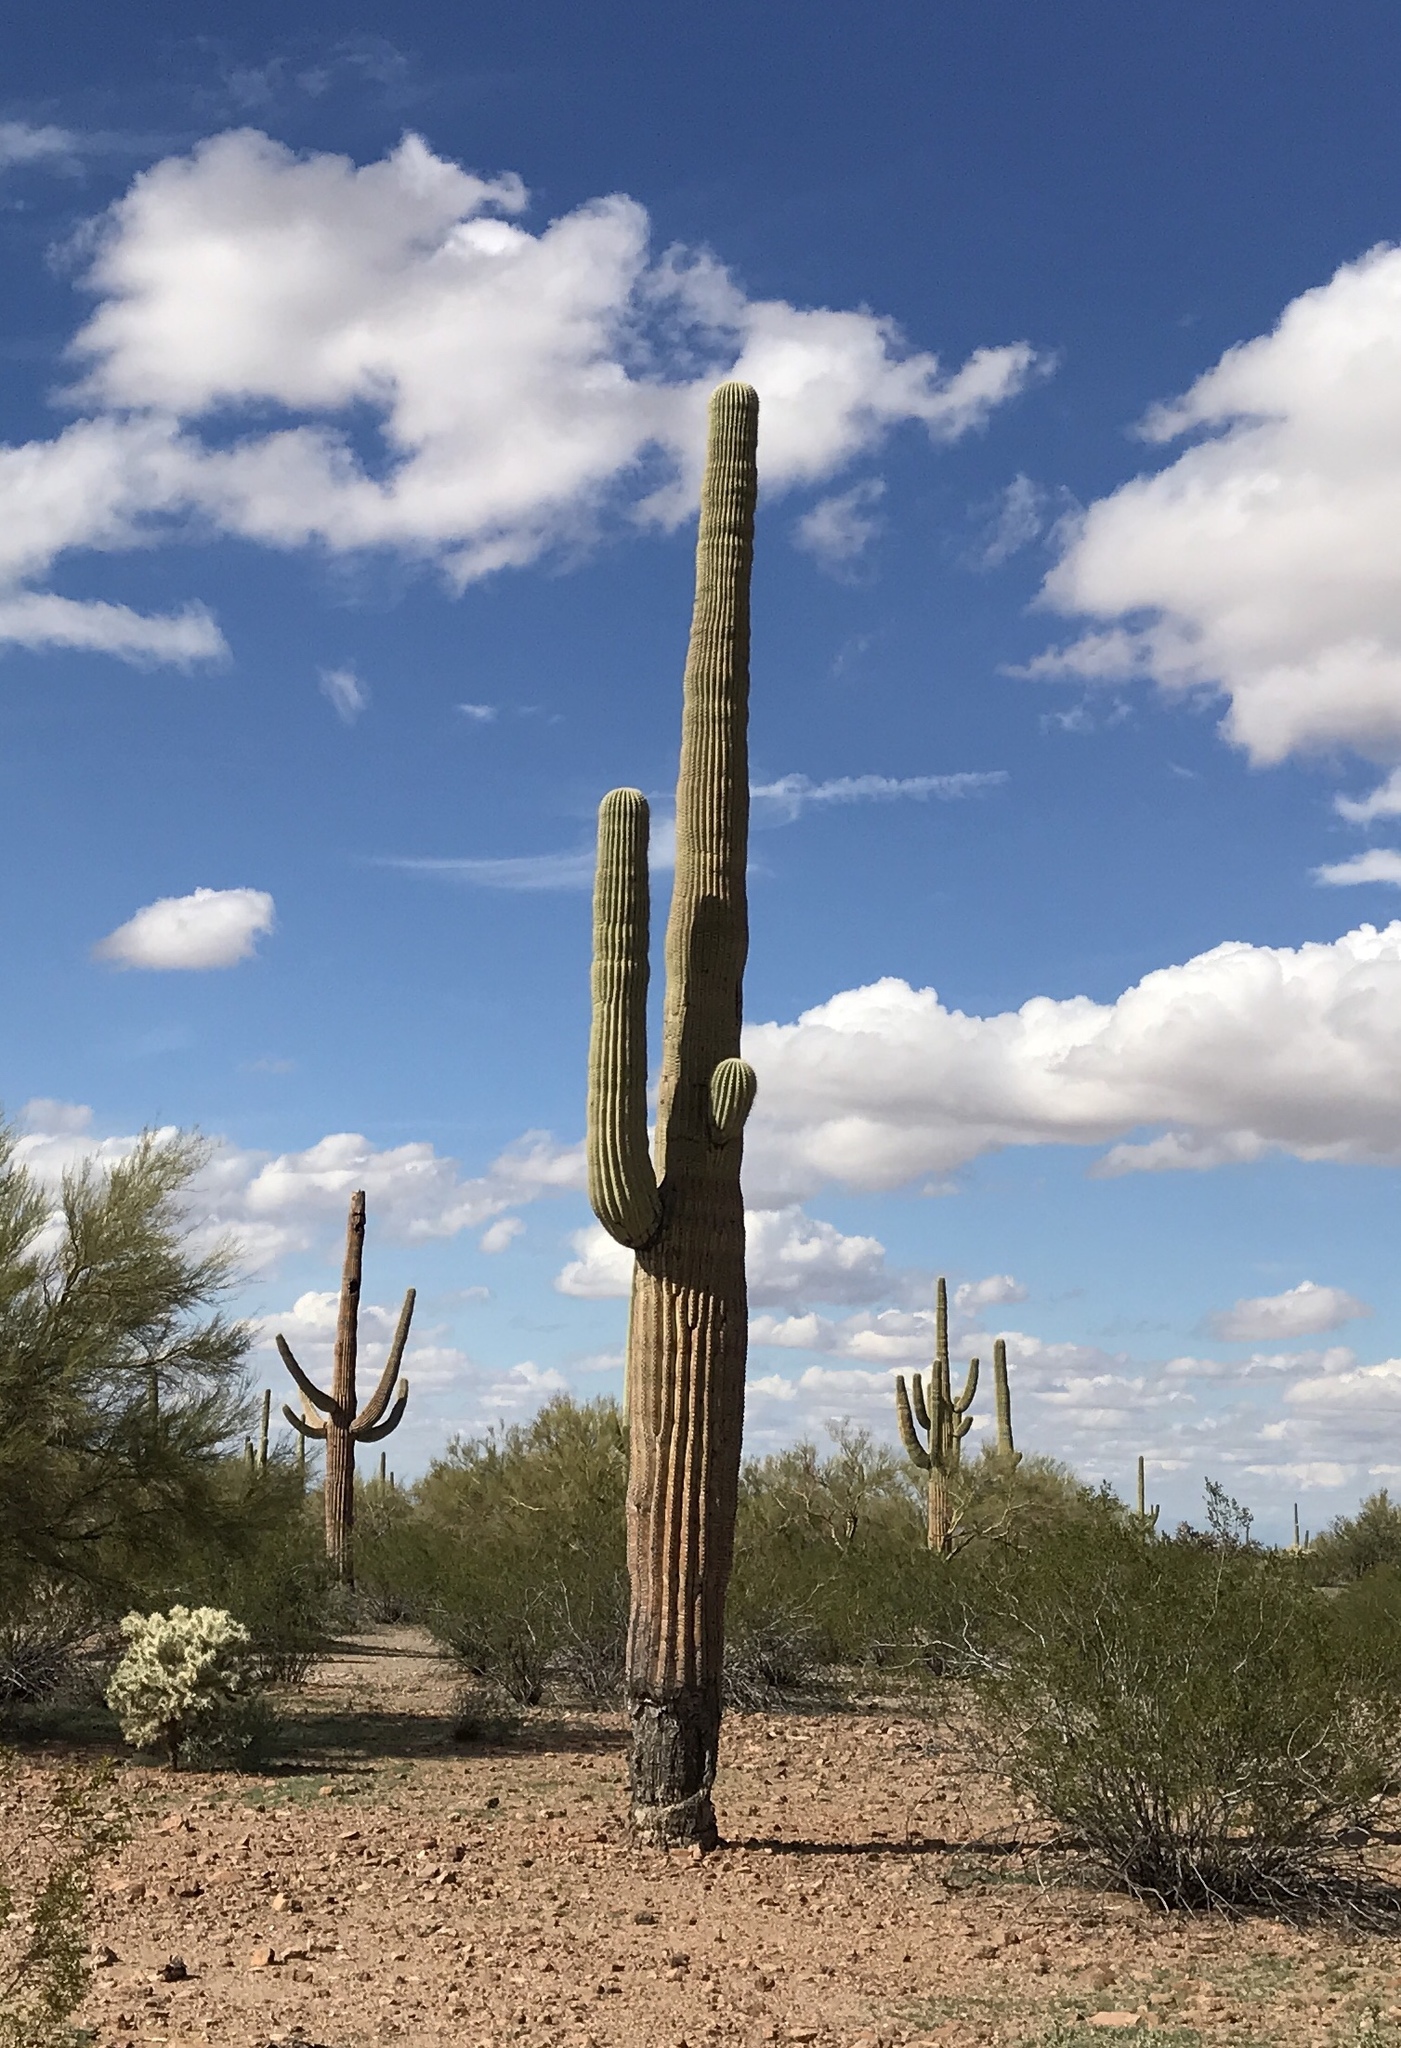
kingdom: Plantae
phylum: Tracheophyta
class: Magnoliopsida
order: Caryophyllales
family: Cactaceae
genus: Carnegiea
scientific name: Carnegiea gigantea
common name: Saguaro
